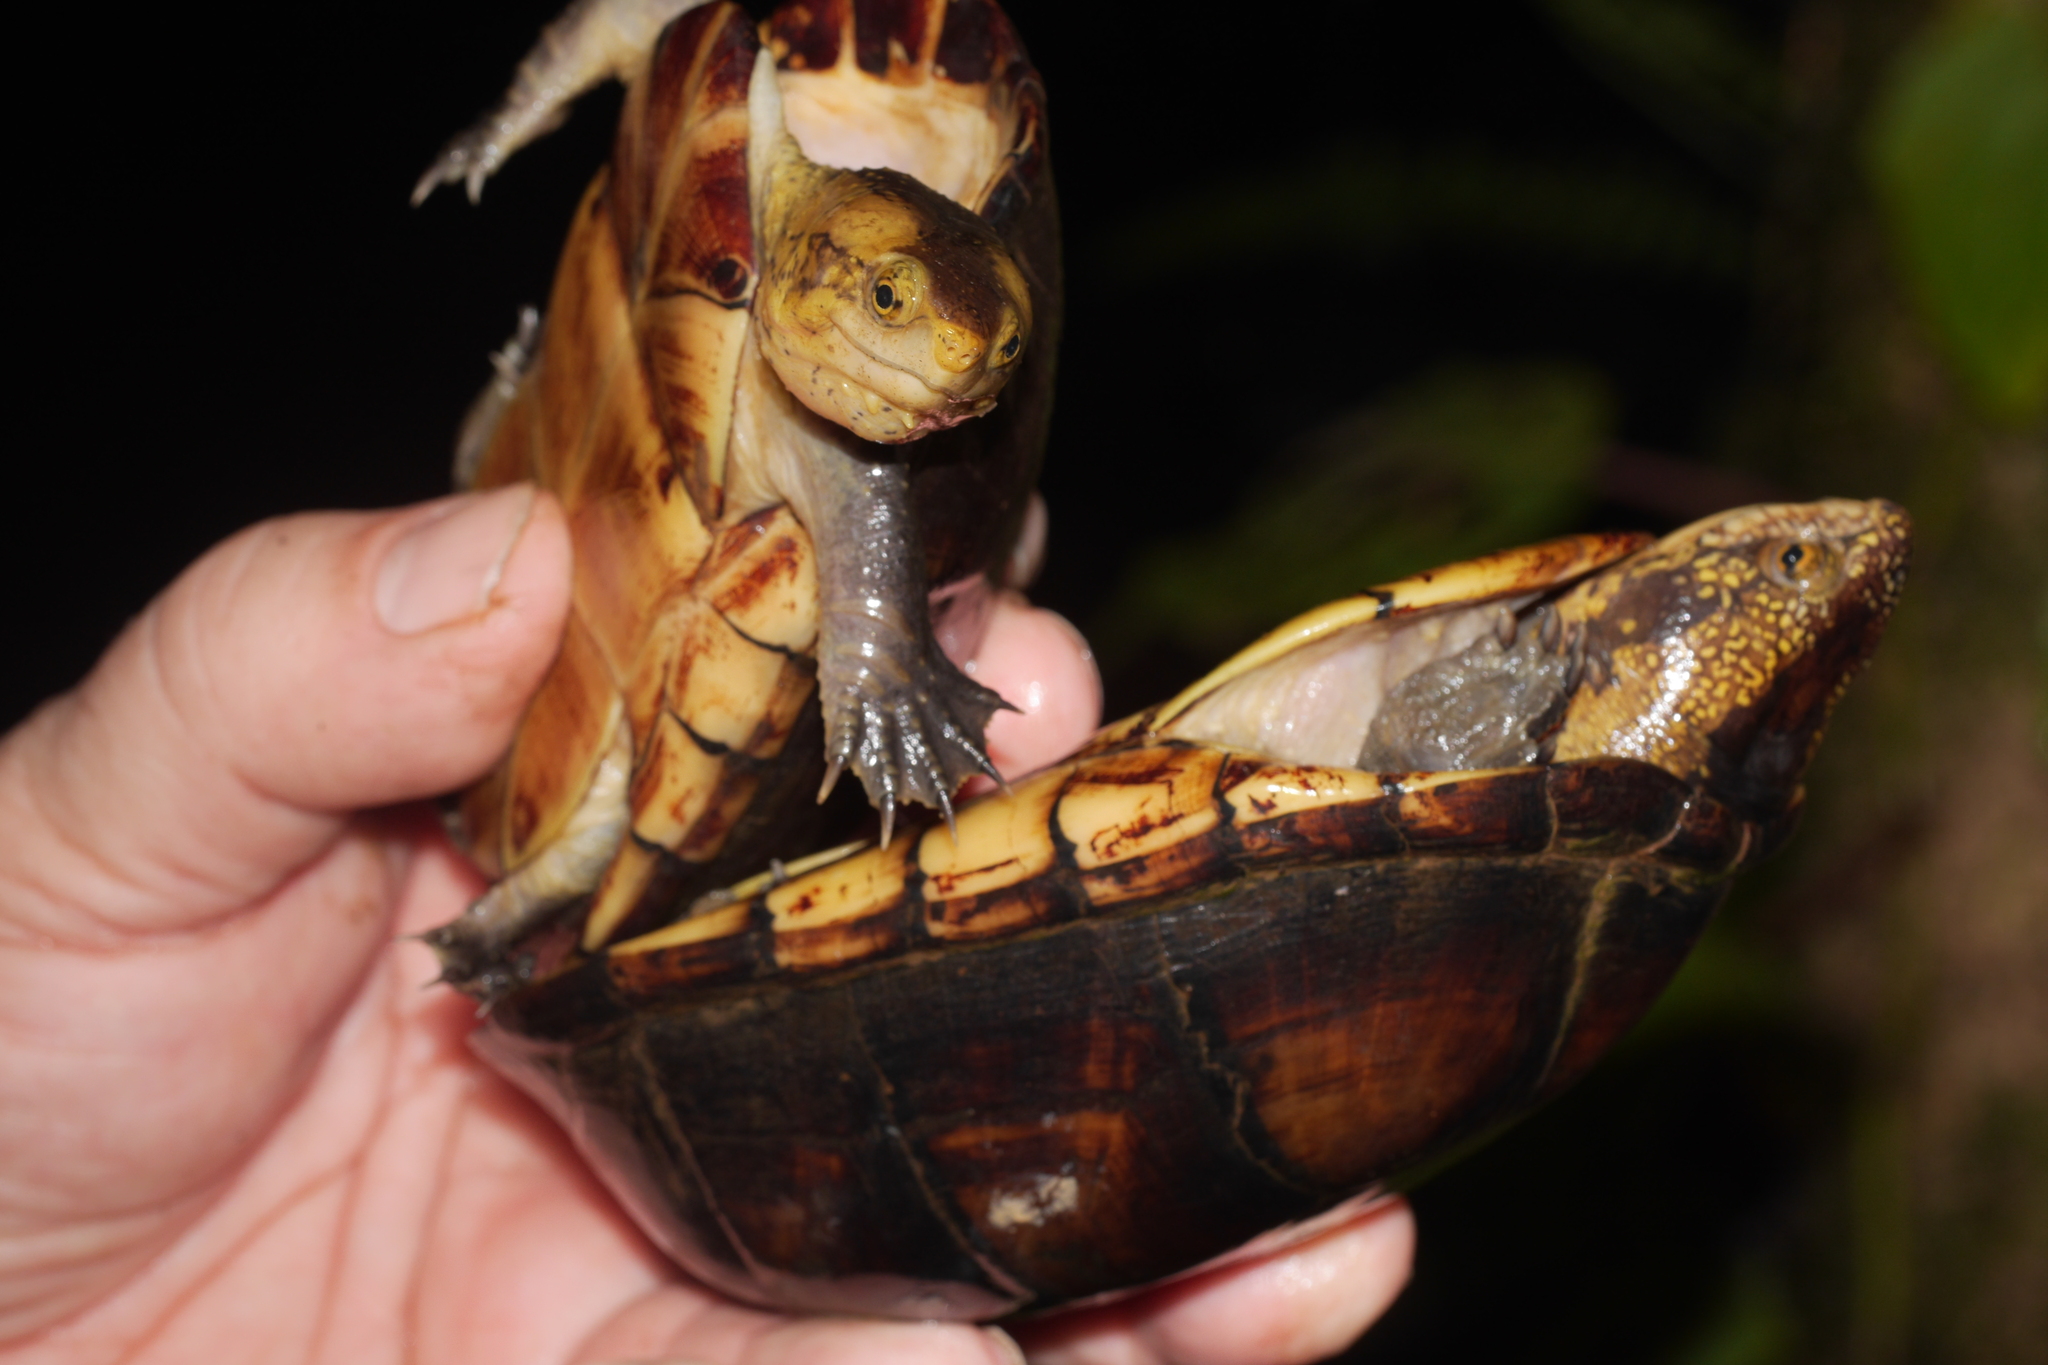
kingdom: Animalia
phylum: Chordata
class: Testudines
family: Kinosternidae
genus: Kinosternon
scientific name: Kinosternon leucostomum
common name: White-lipped mud turtle
